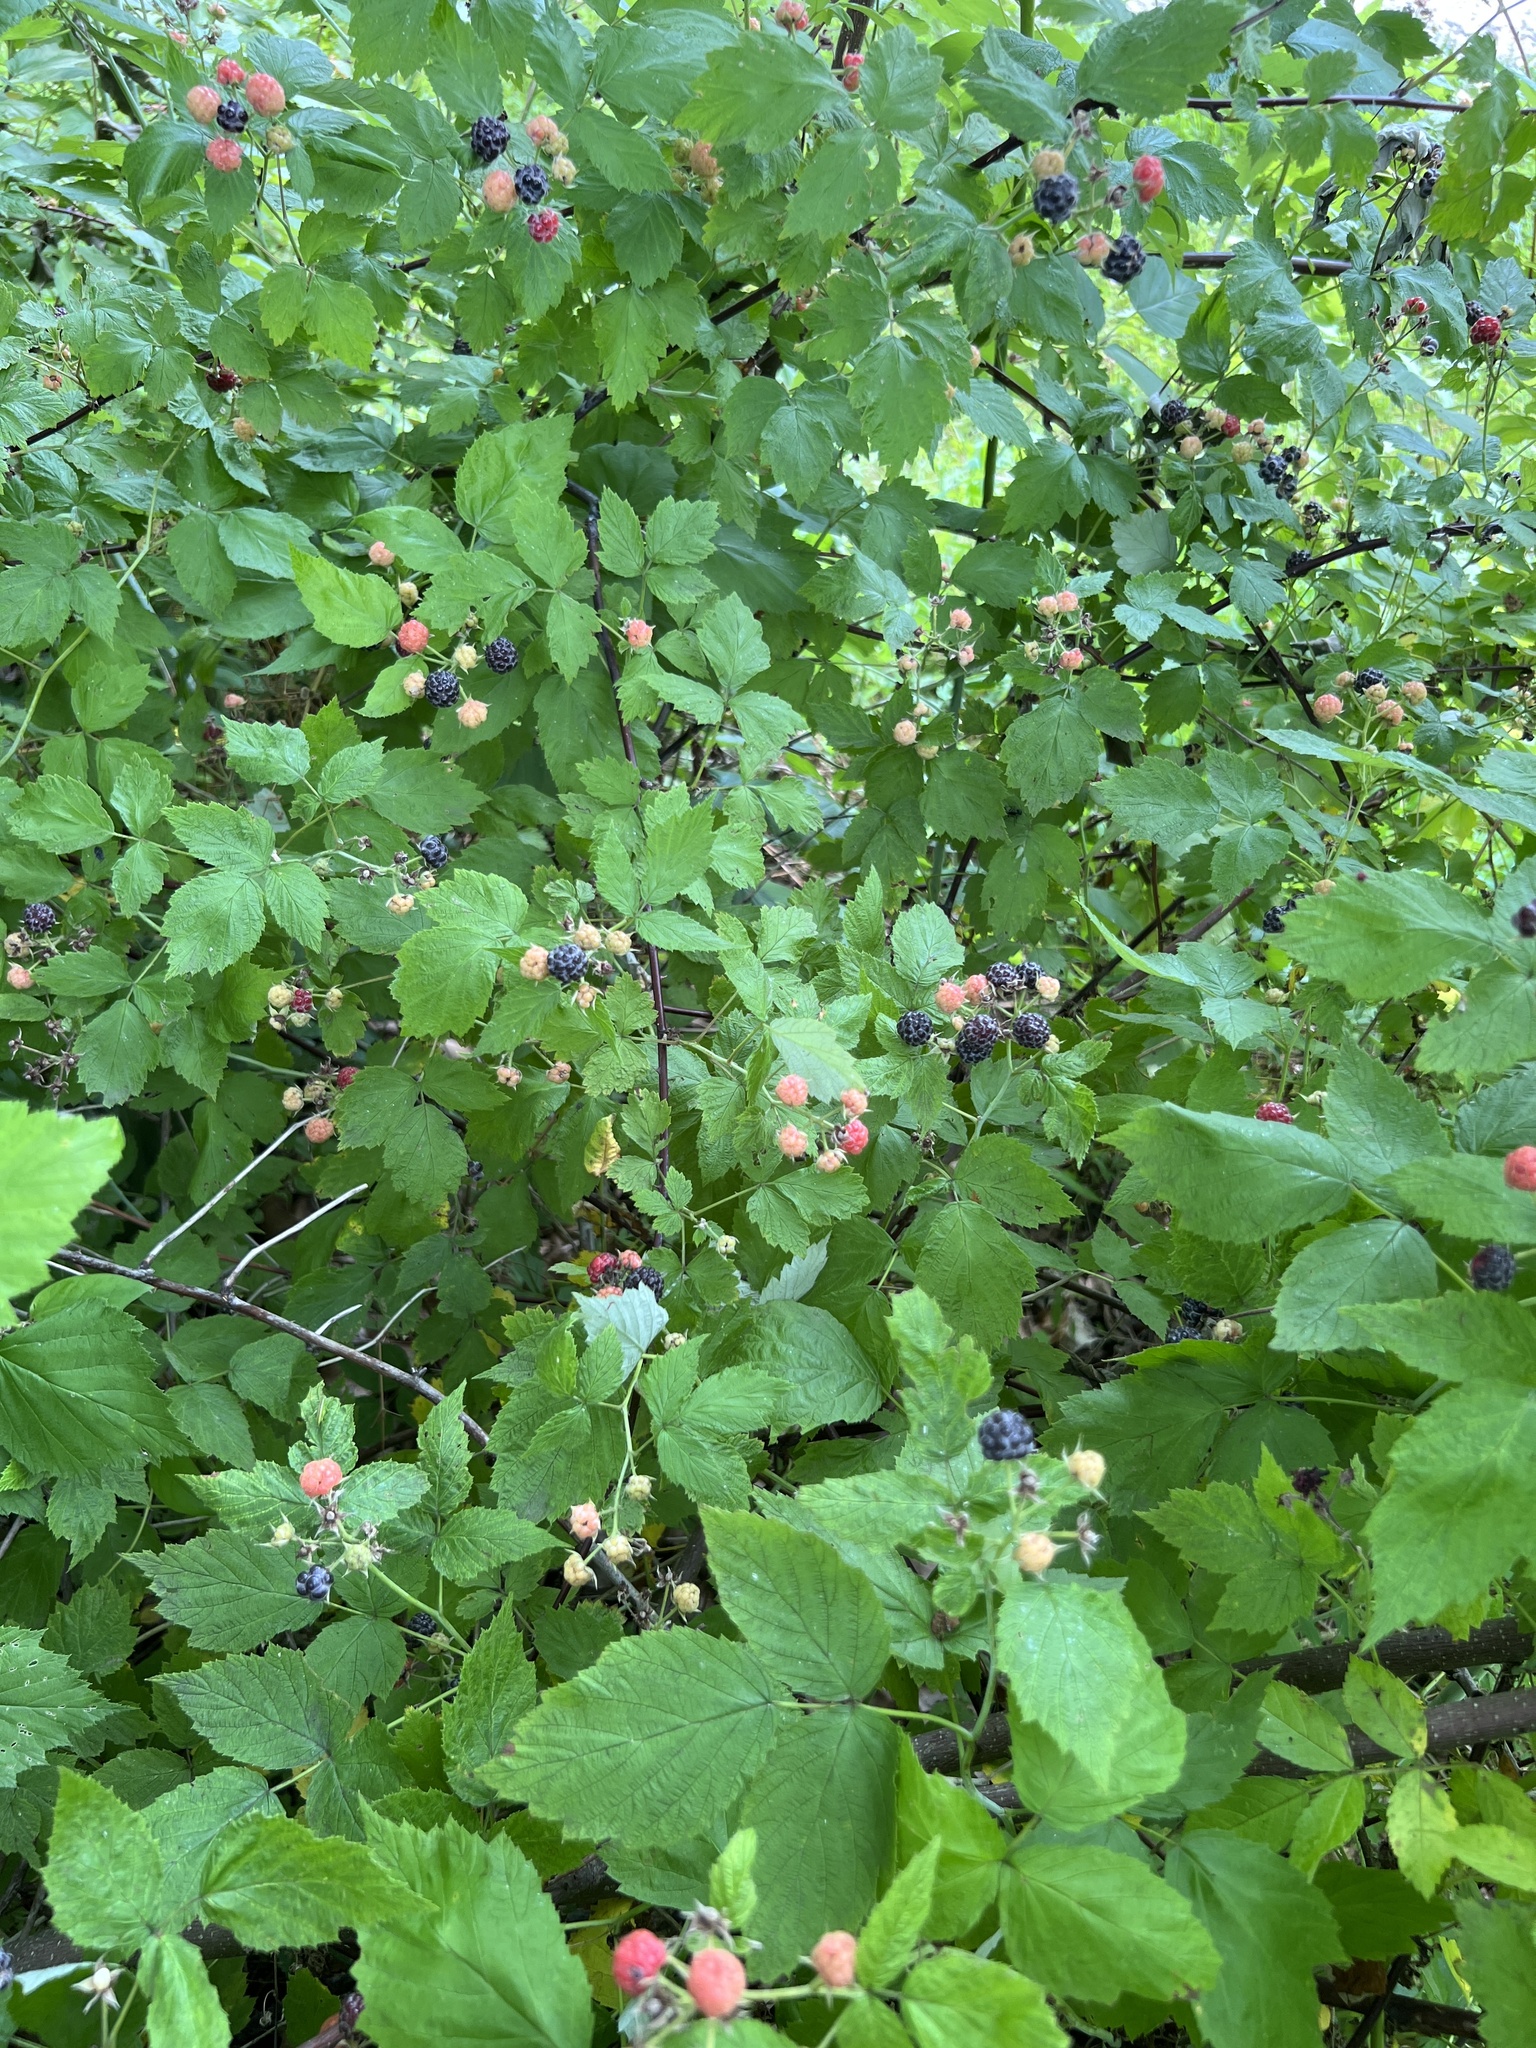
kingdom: Plantae
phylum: Tracheophyta
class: Magnoliopsida
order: Rosales
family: Rosaceae
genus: Rubus
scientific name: Rubus occidentalis
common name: Black raspberry
